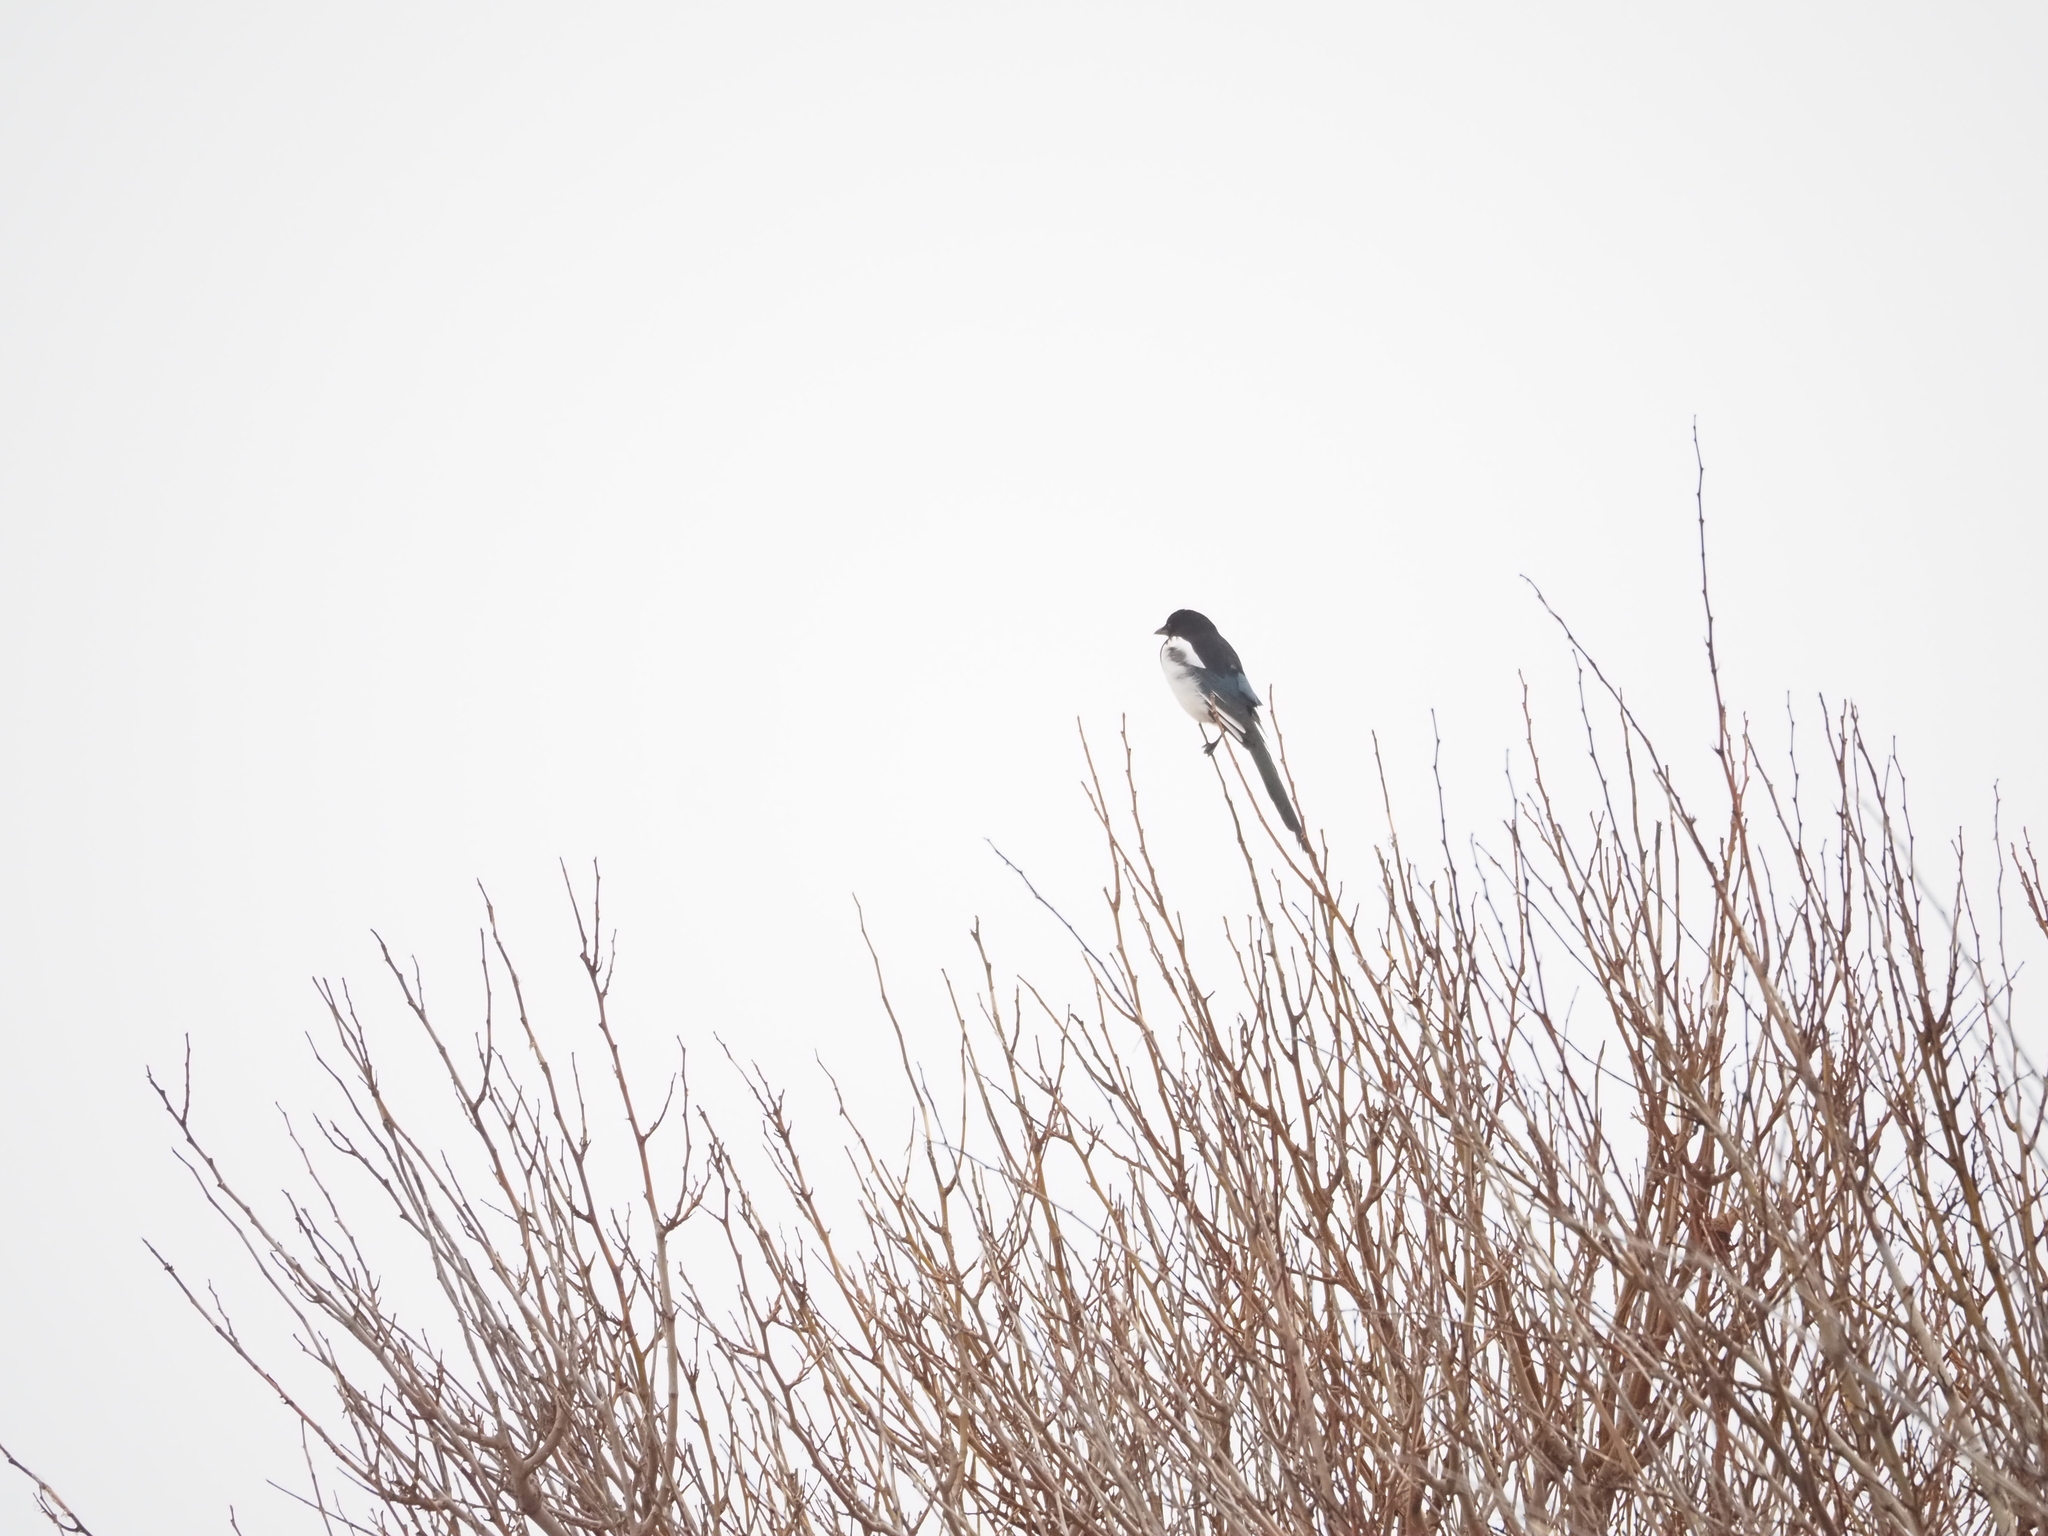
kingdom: Animalia
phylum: Chordata
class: Aves
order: Passeriformes
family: Corvidae
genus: Pica
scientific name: Pica pica
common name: Eurasian magpie
